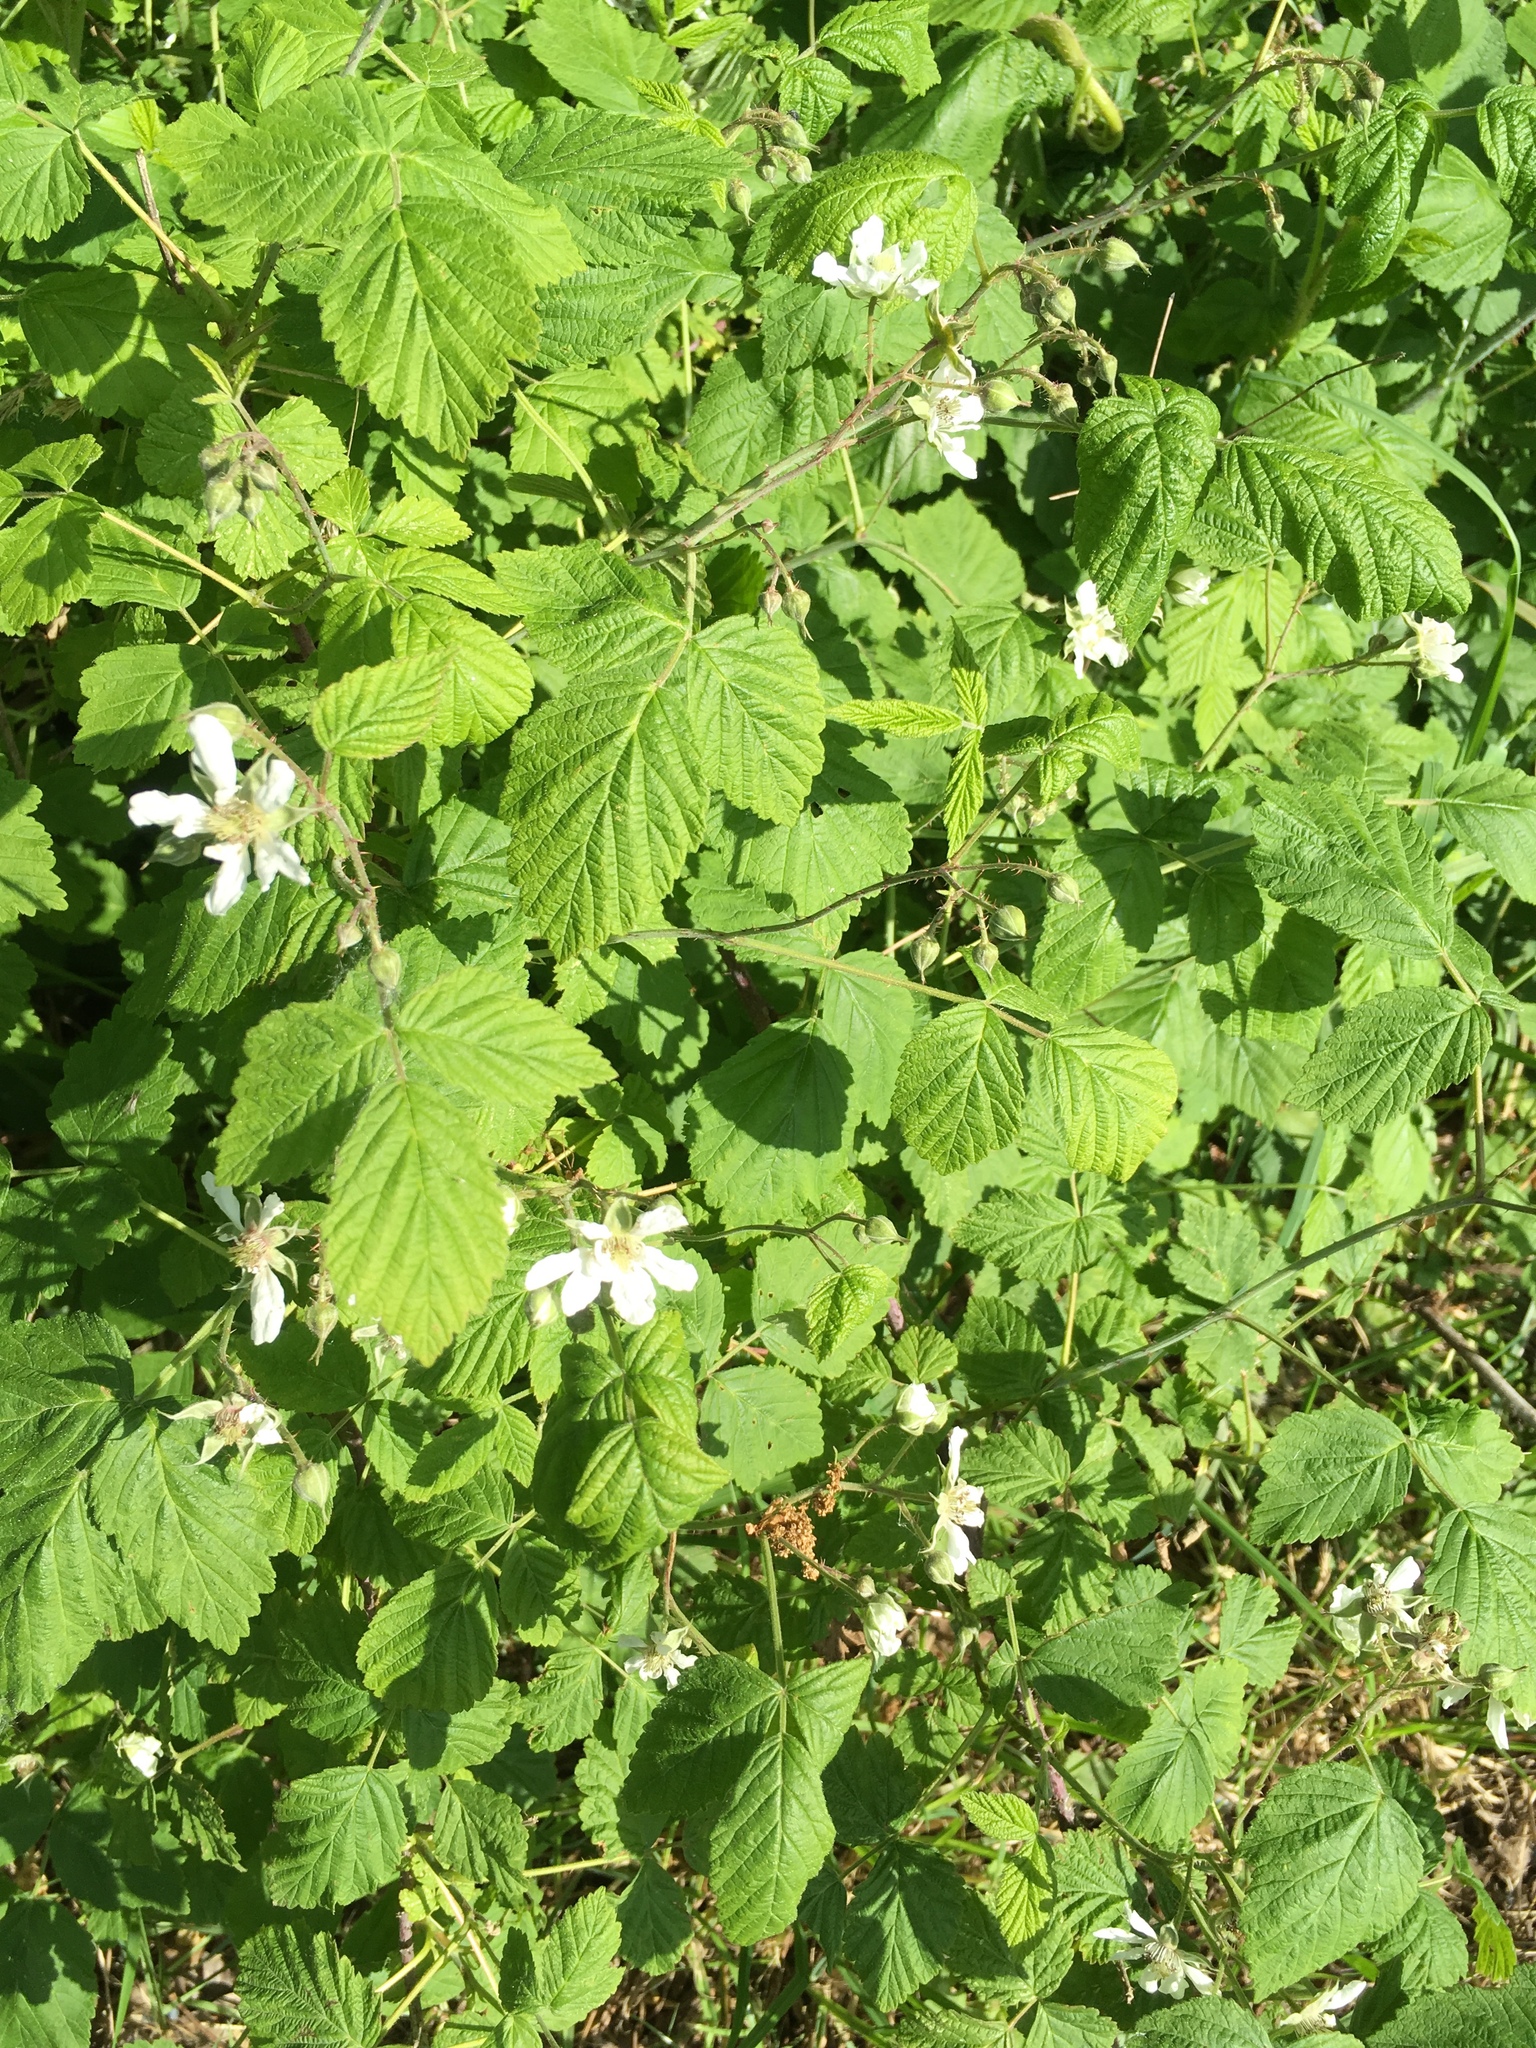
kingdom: Plantae
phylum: Tracheophyta
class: Magnoliopsida
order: Rosales
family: Rosaceae
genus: Rubus
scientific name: Rubus caesius
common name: Dewberry
